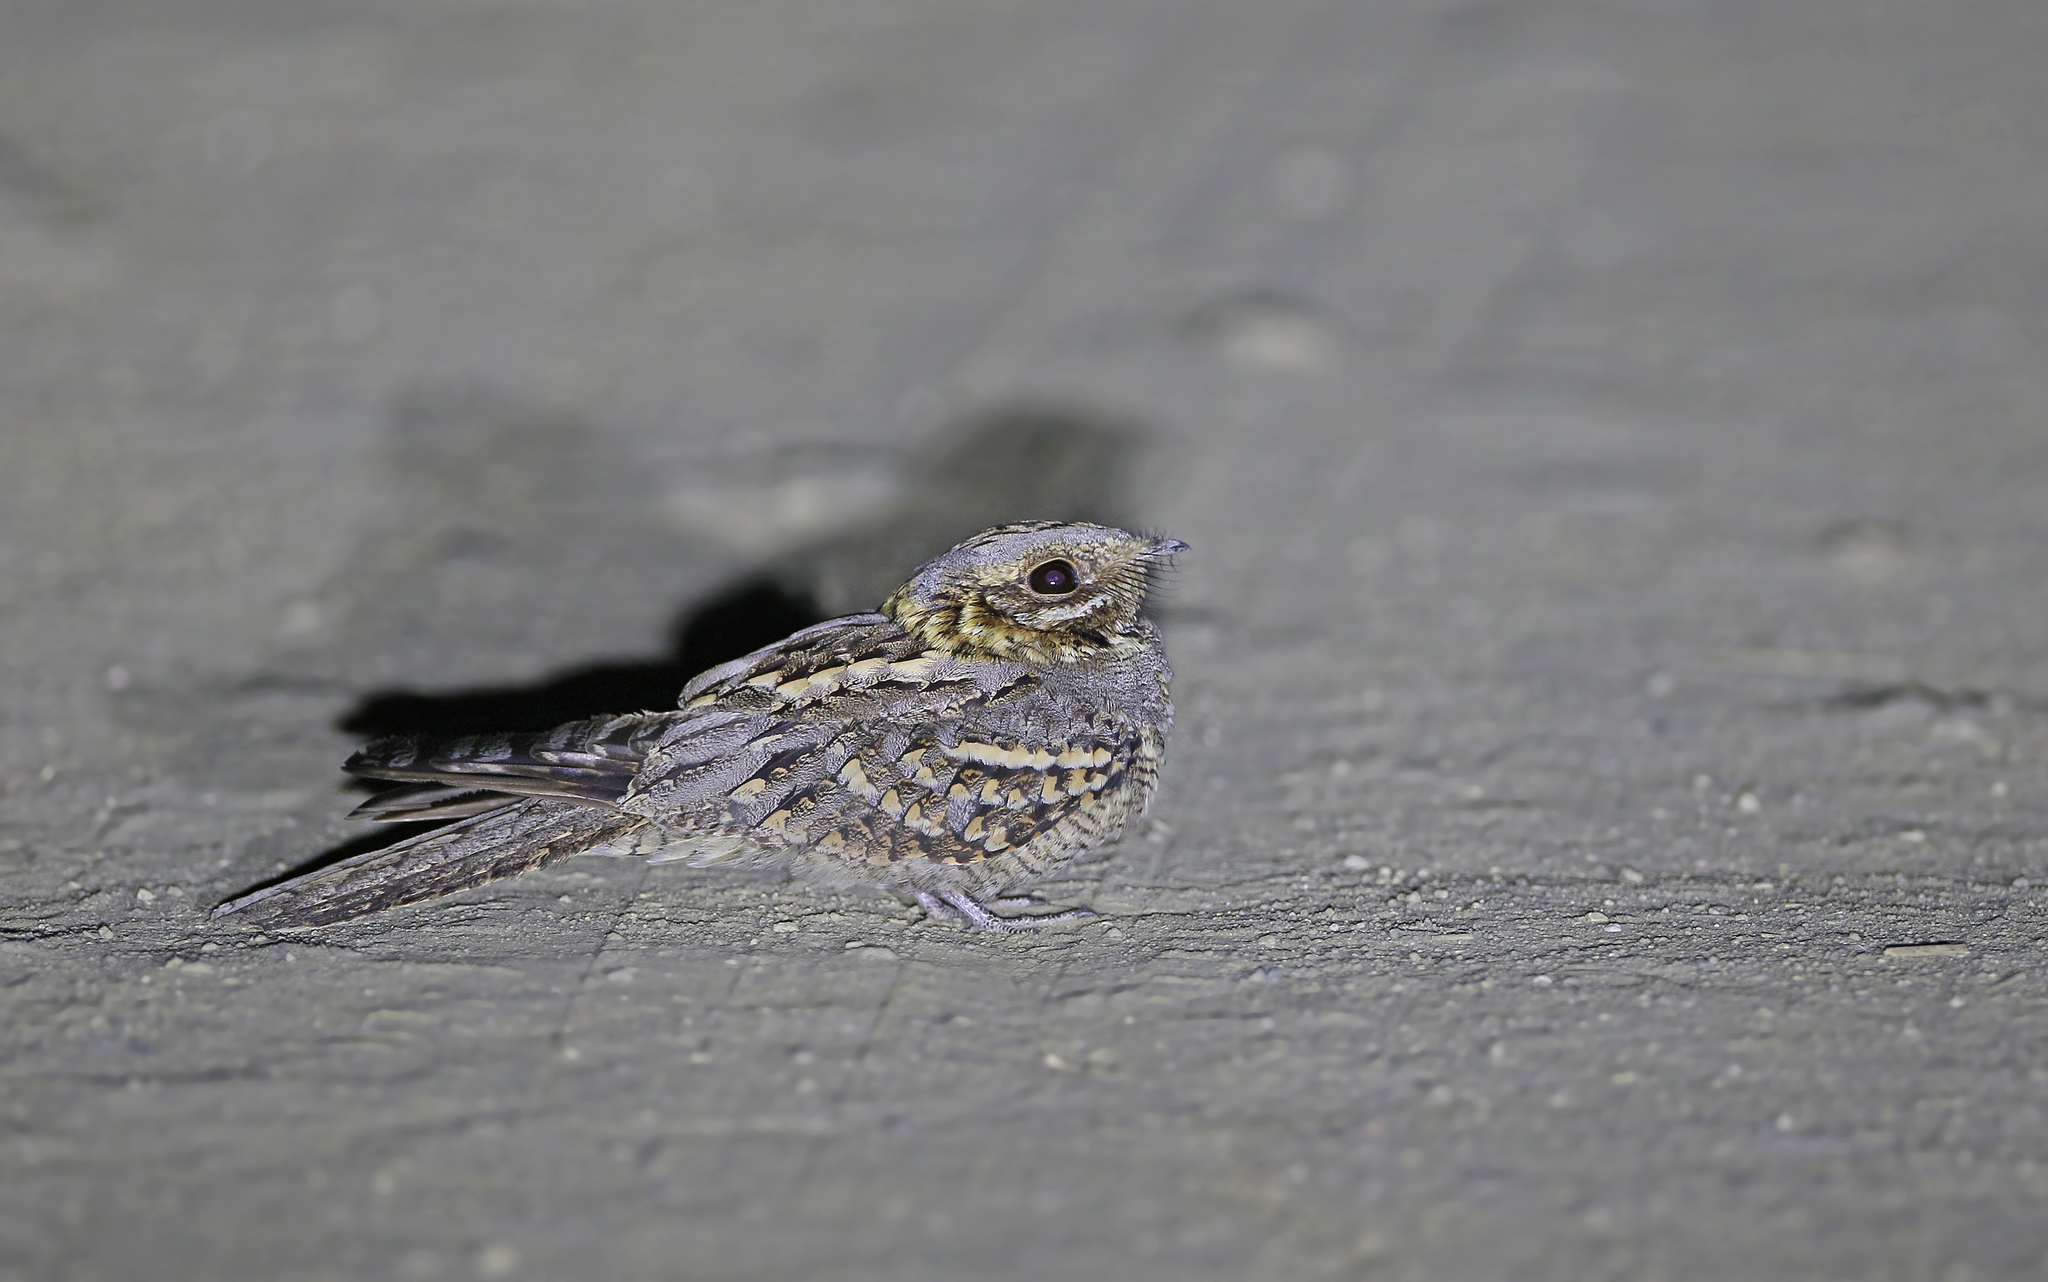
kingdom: Animalia
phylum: Chordata
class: Aves
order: Caprimulgiformes
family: Caprimulgidae
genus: Caprimulgus
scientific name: Caprimulgus ruficollis
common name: Red-necked nightjar
